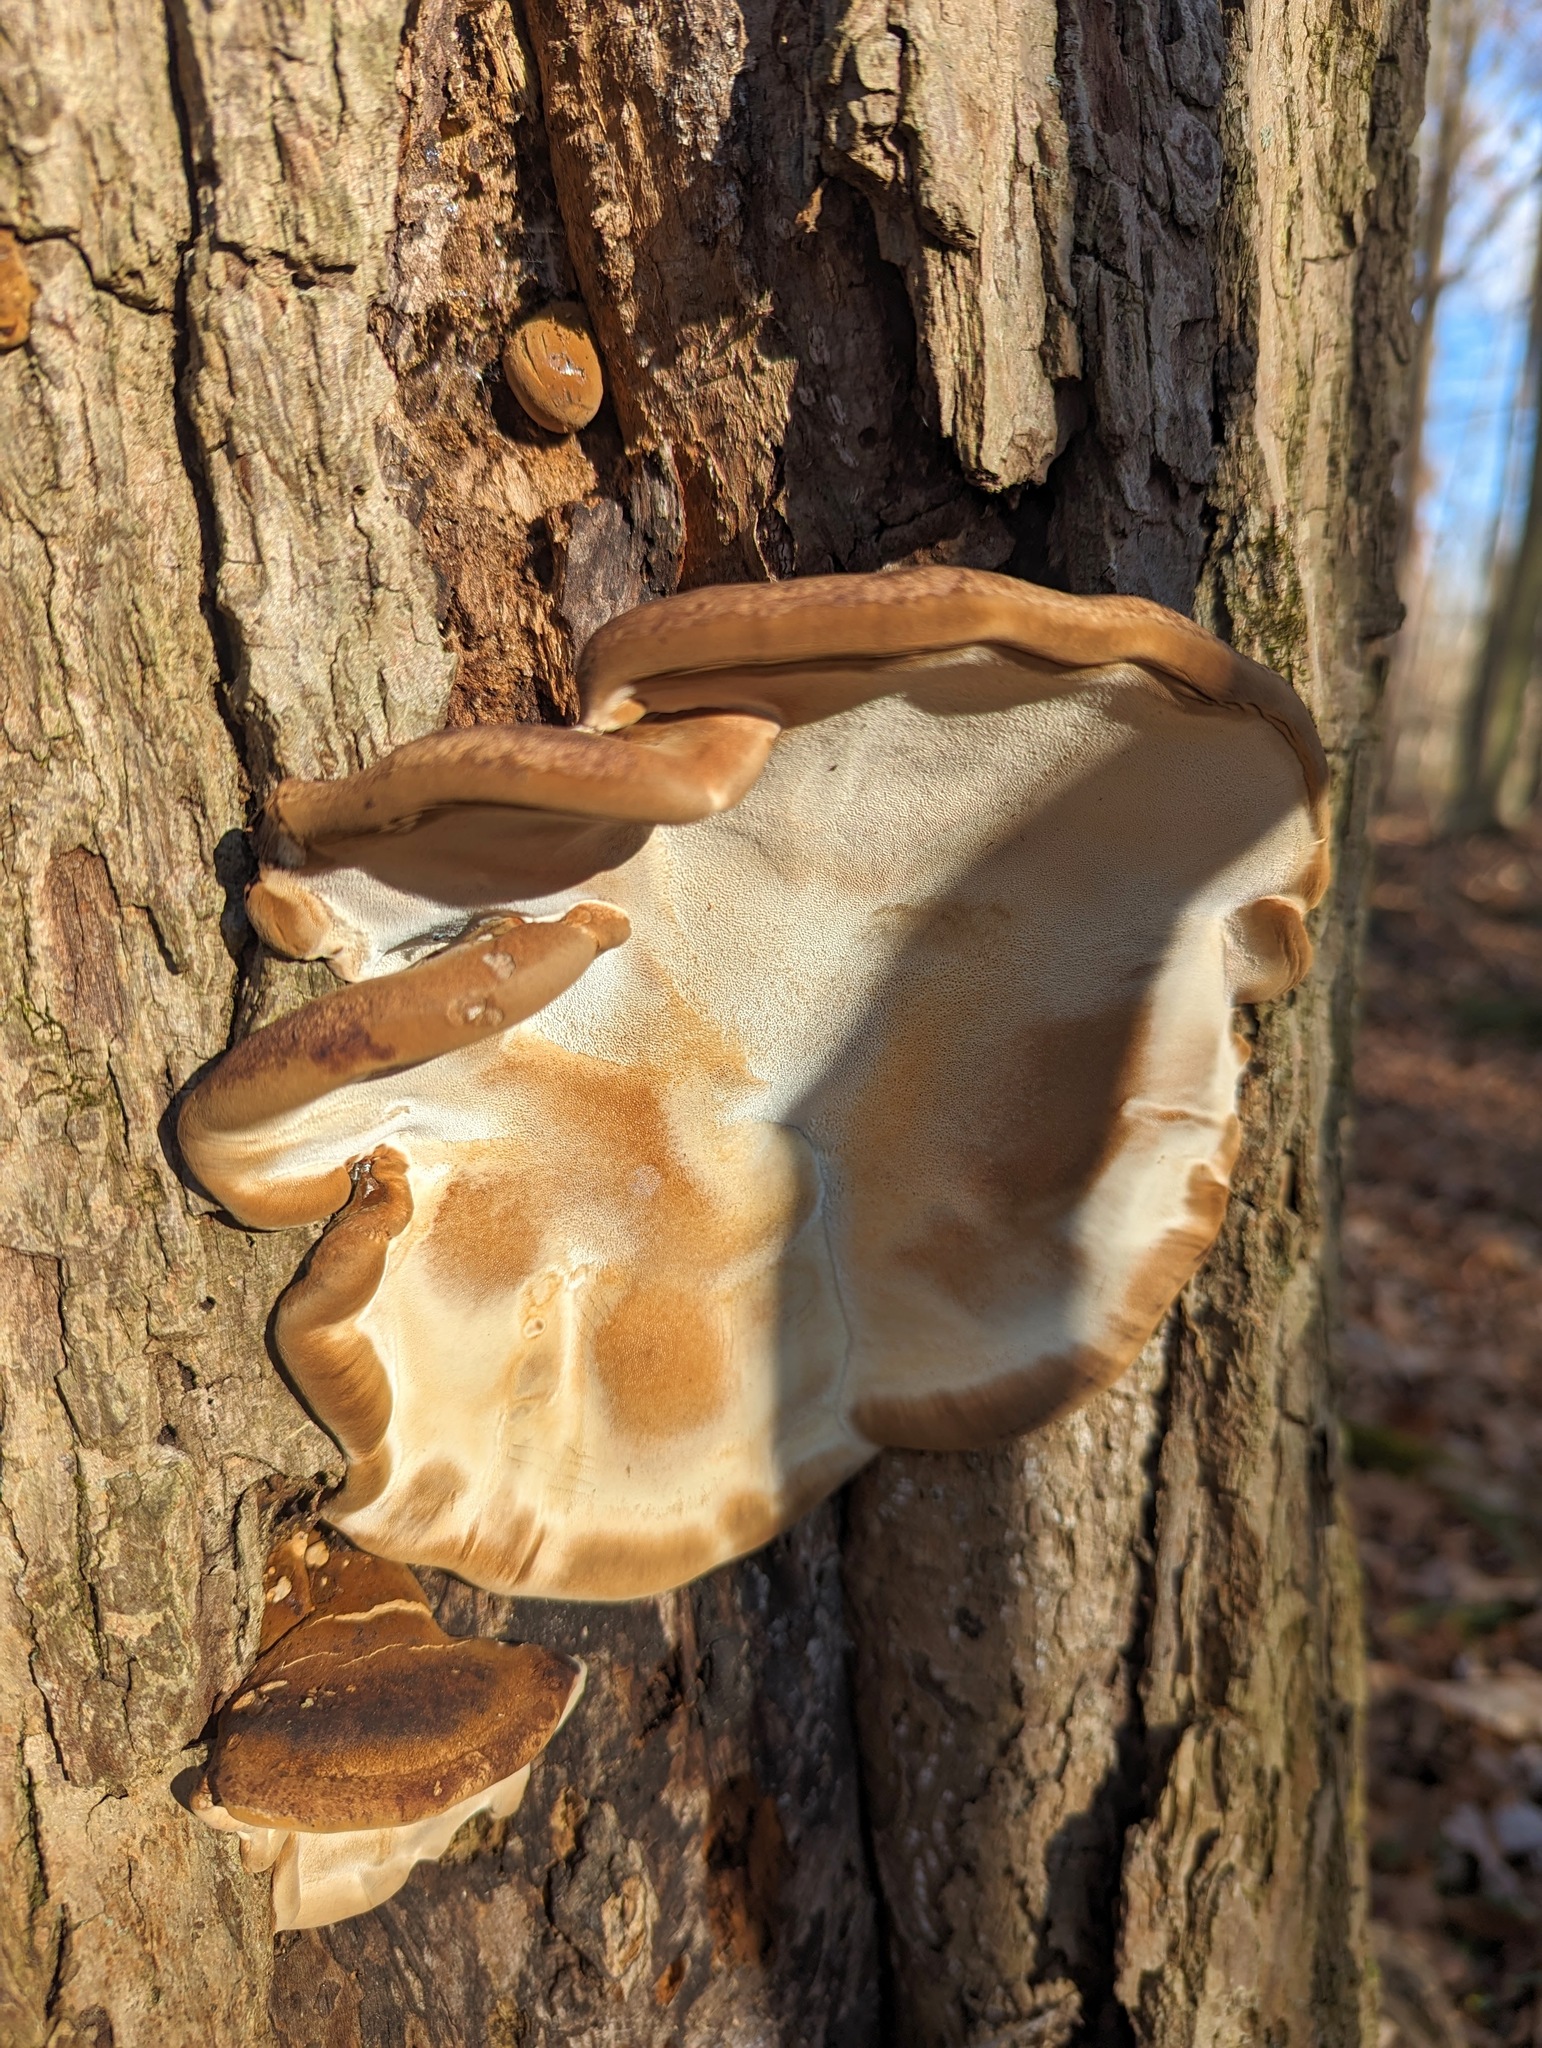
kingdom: Fungi
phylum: Basidiomycota
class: Agaricomycetes
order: Polyporales
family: Ischnodermataceae
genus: Ischnoderma
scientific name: Ischnoderma resinosum
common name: Resinous polypore
